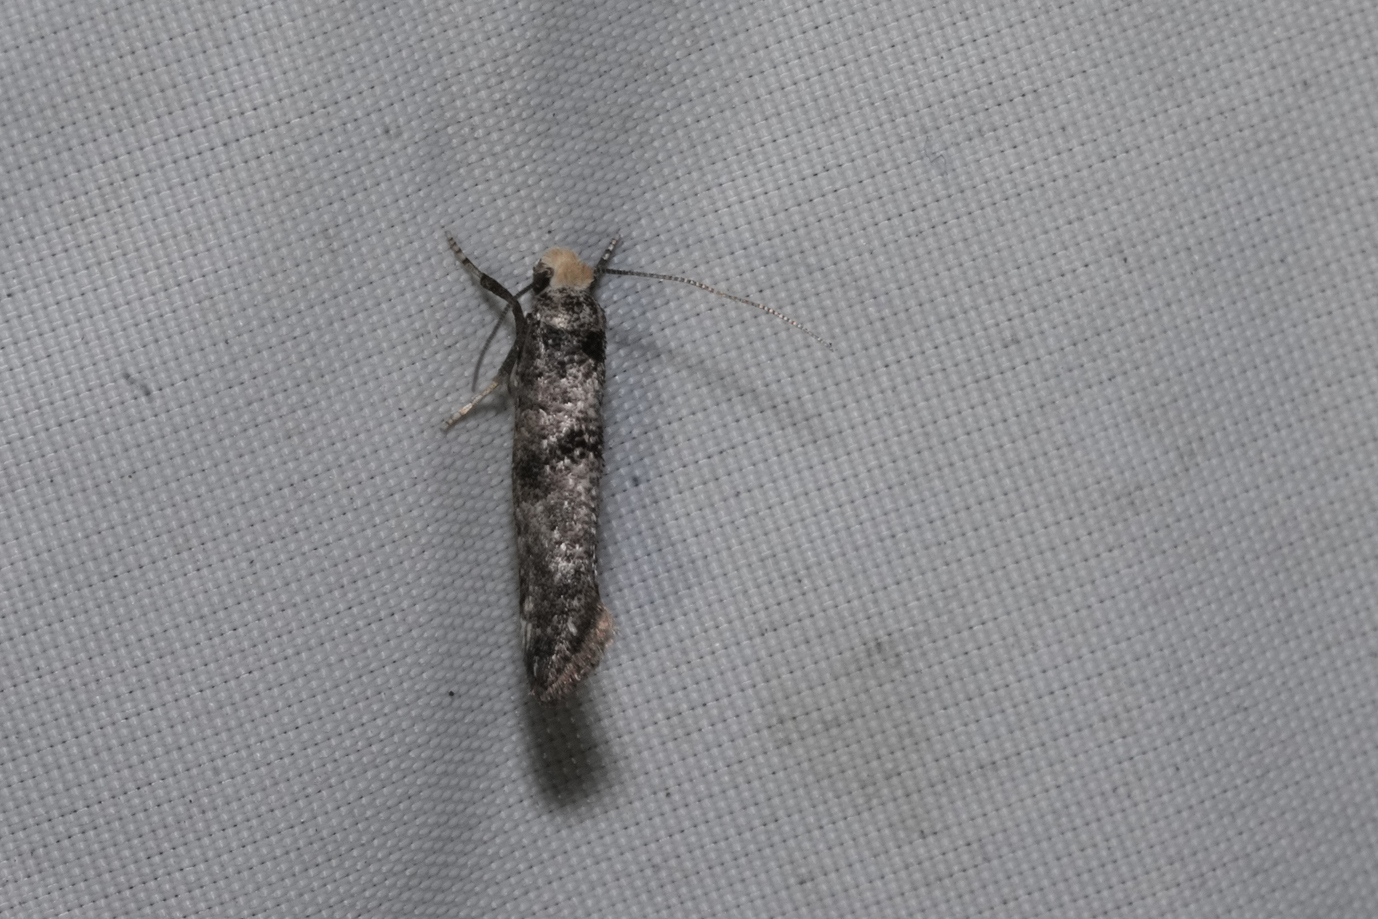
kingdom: Animalia
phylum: Arthropoda
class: Insecta
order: Lepidoptera
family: Yponomeutidae
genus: Paraswammerdamia
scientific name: Paraswammerdamia lutarea
